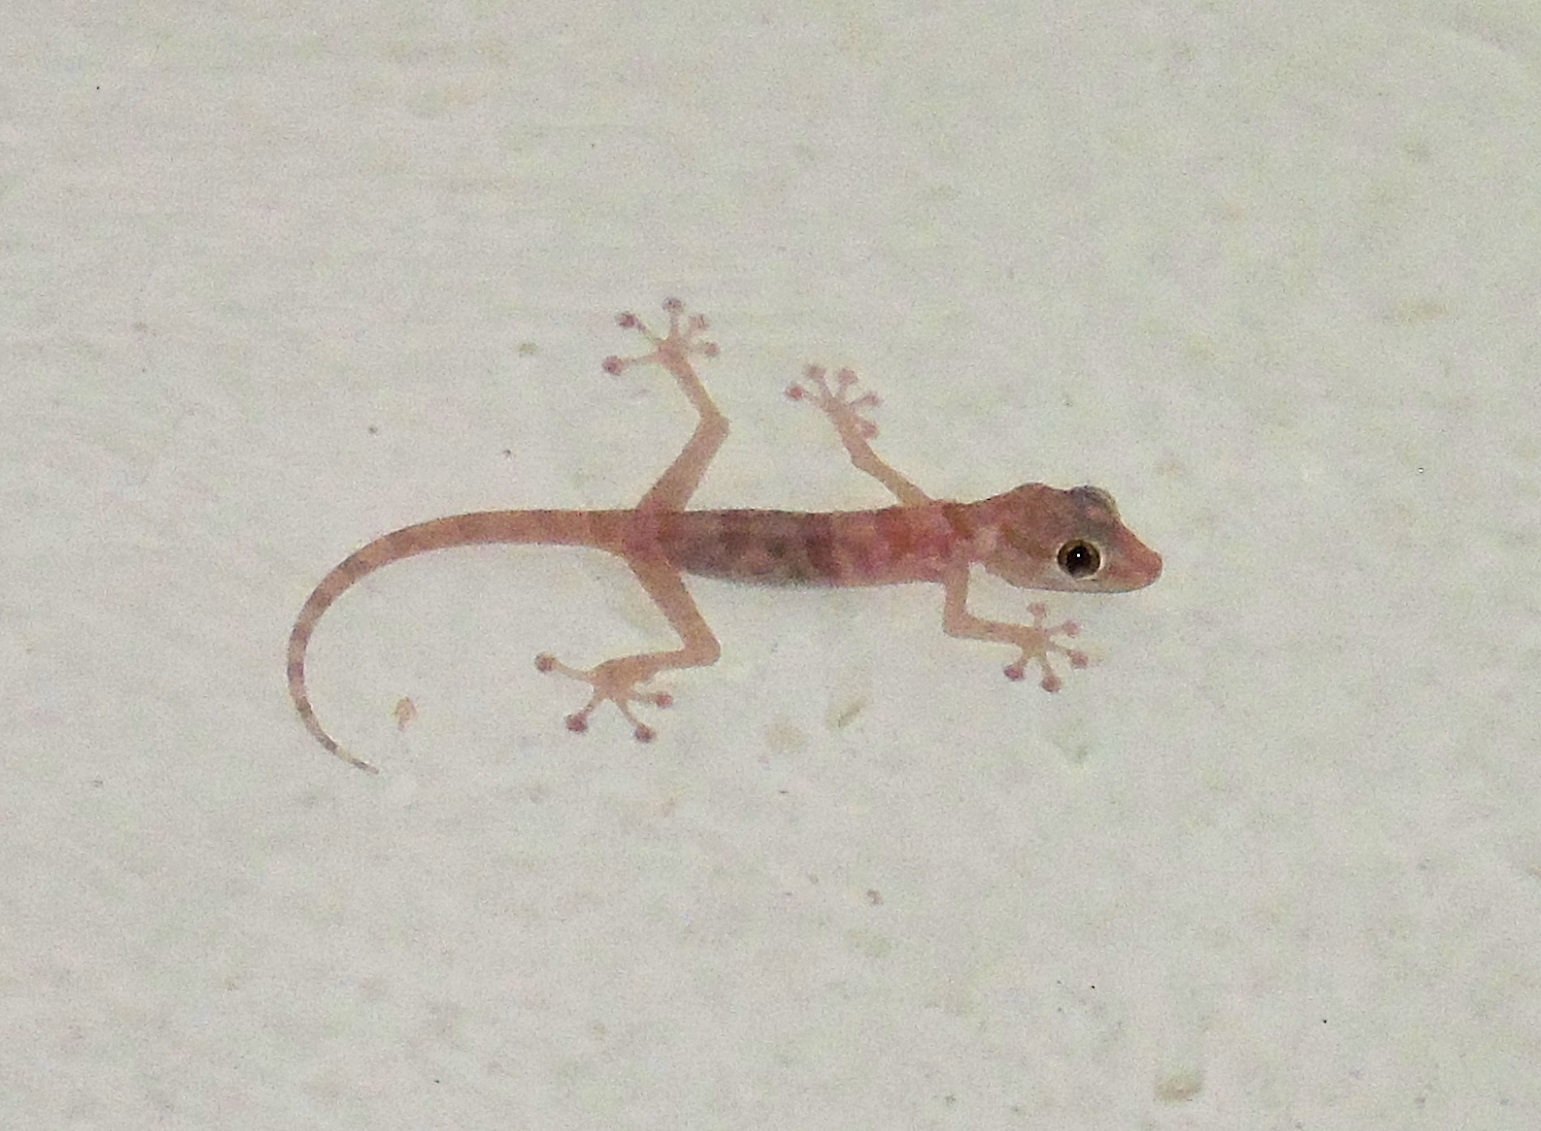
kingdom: Animalia
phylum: Chordata
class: Squamata
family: Phyllodactylidae
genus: Ptyodactylus
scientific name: Ptyodactylus hasselquistii
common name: Hasselquist’s fan-footed gecko
